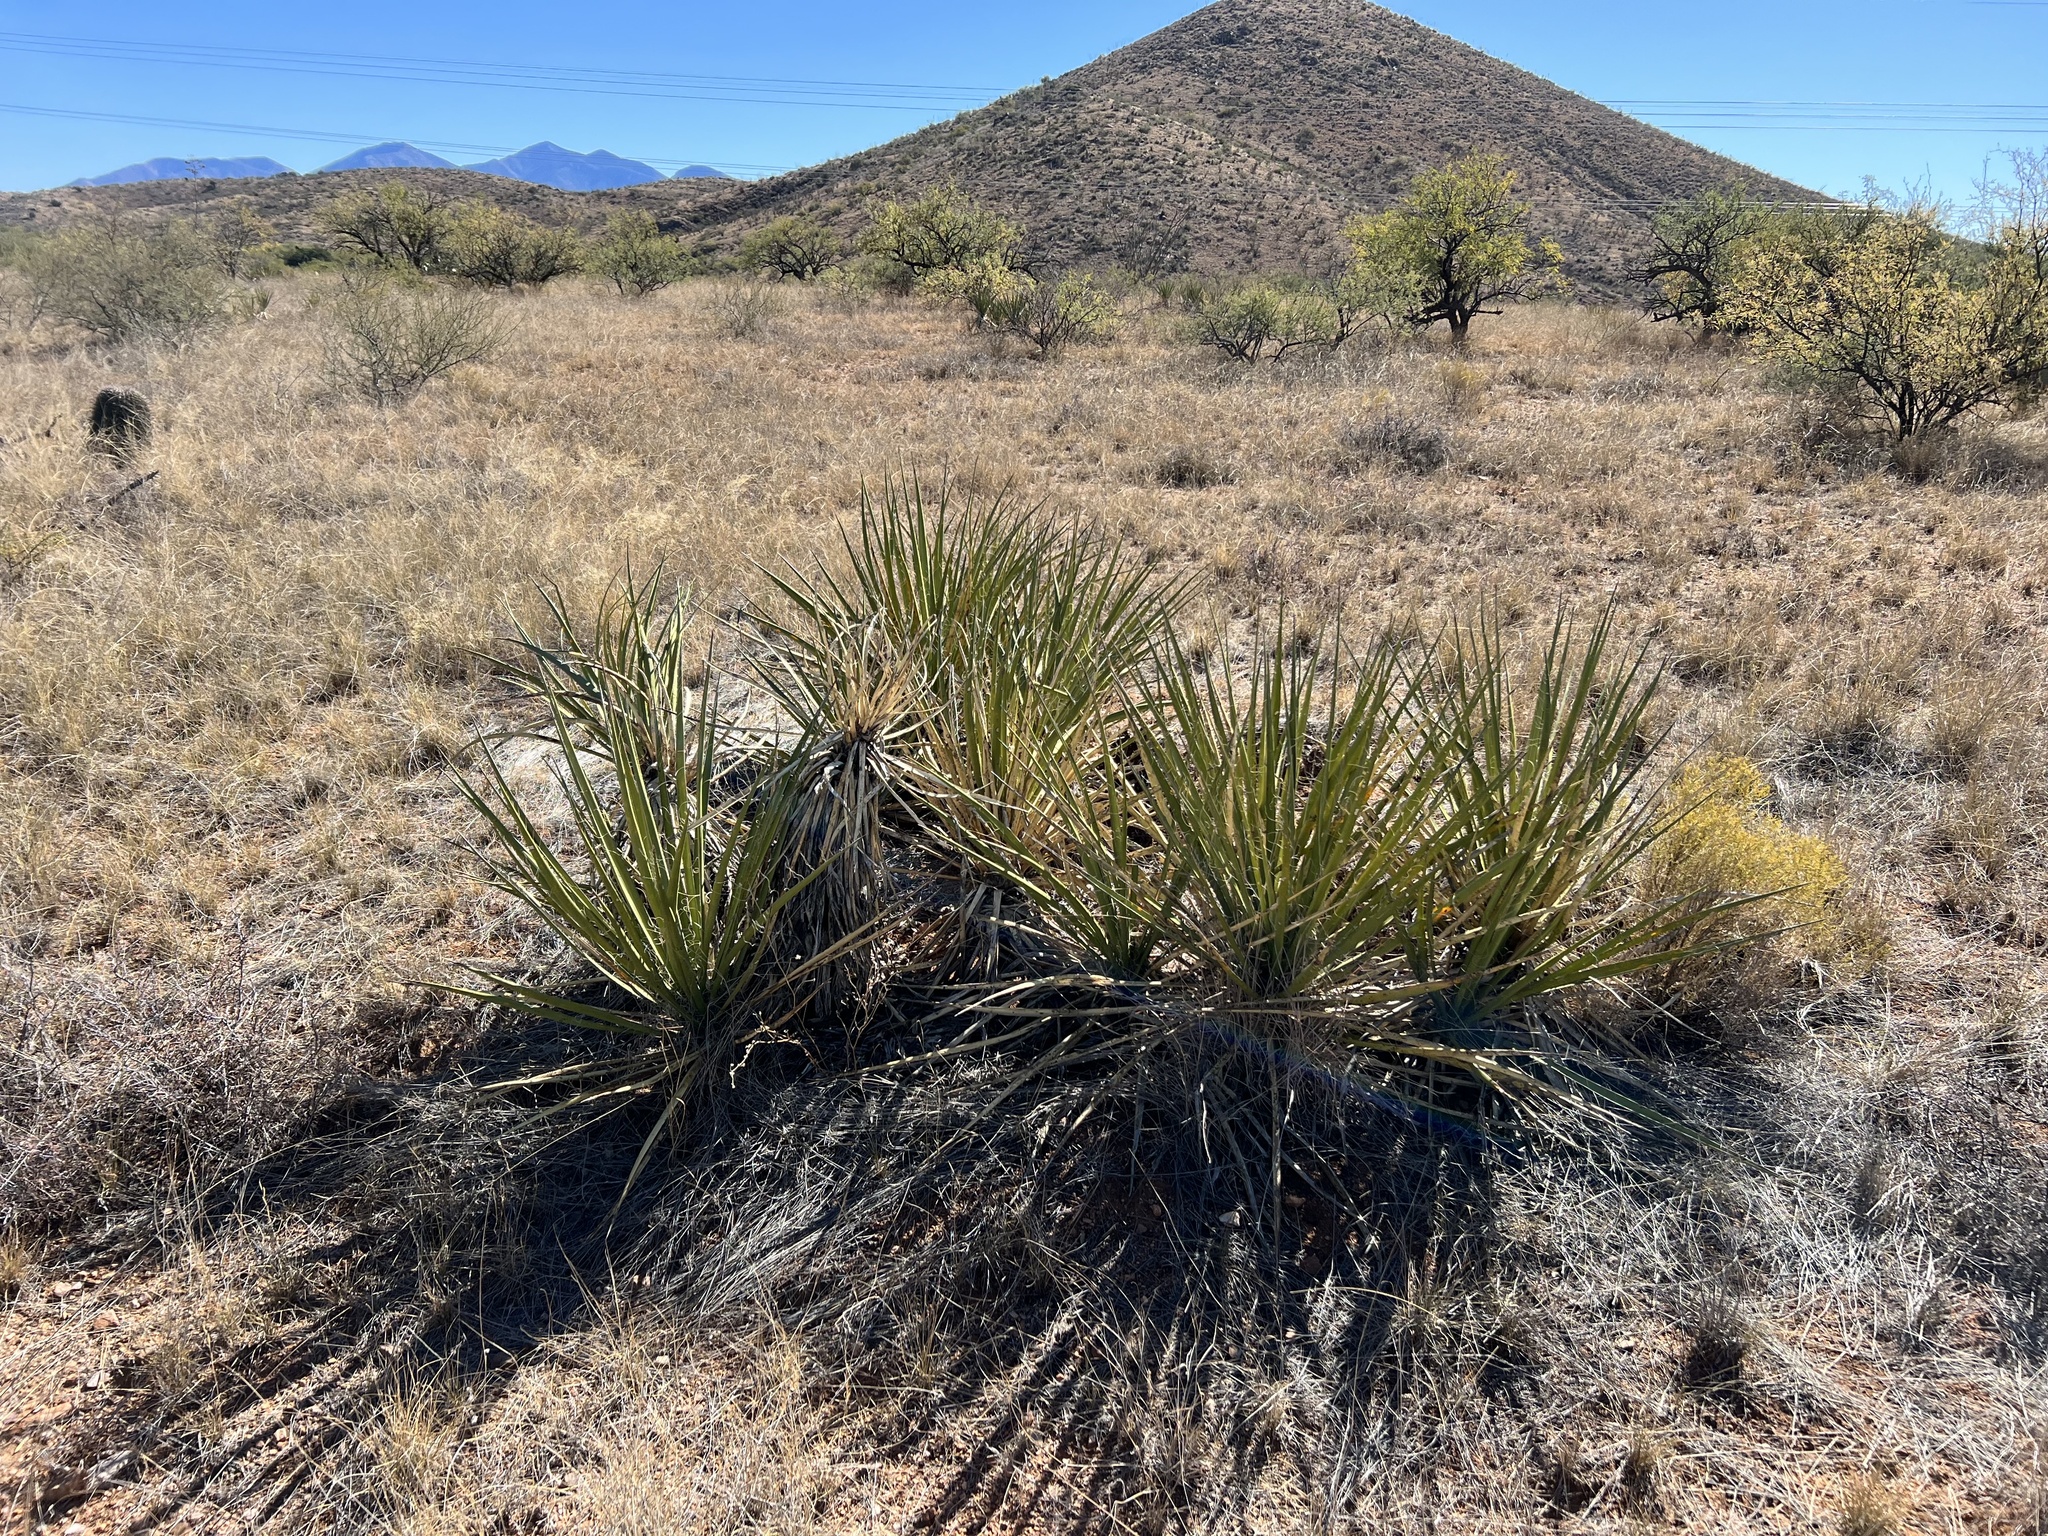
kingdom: Plantae
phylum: Tracheophyta
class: Liliopsida
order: Asparagales
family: Asparagaceae
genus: Yucca
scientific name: Yucca baccata
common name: Banana yucca
